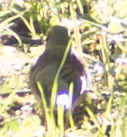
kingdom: Animalia
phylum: Chordata
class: Aves
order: Passeriformes
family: Turdidae
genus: Turdus
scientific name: Turdus pilaris
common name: Fieldfare
